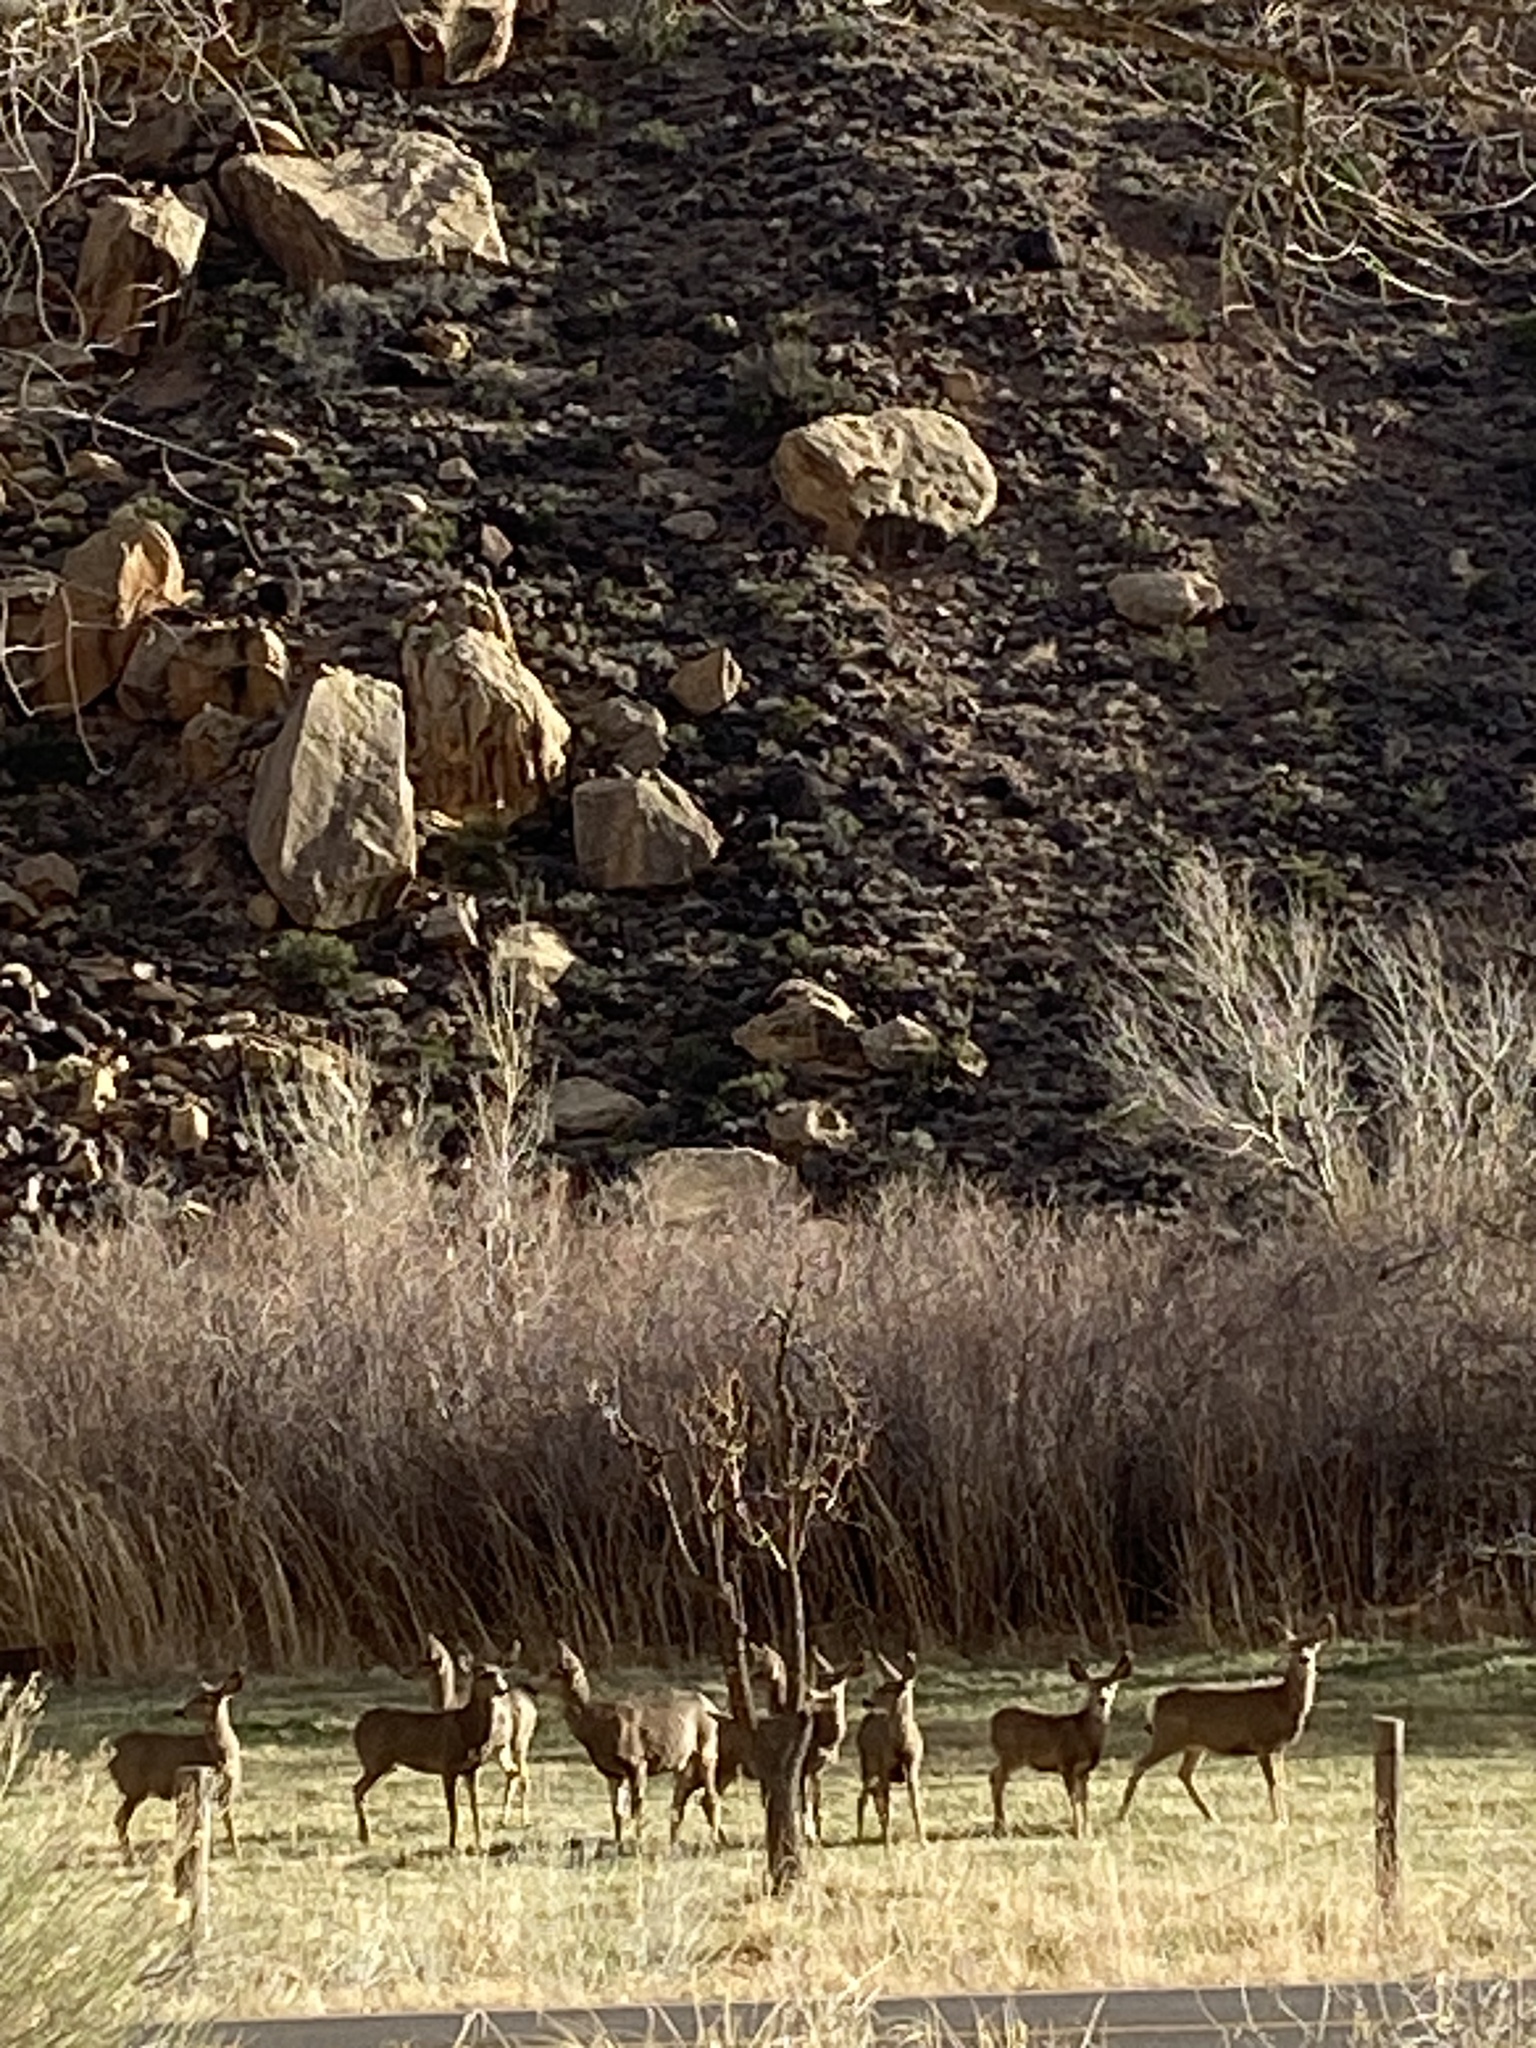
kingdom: Animalia
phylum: Chordata
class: Mammalia
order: Artiodactyla
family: Cervidae
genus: Odocoileus
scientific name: Odocoileus hemionus
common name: Mule deer
